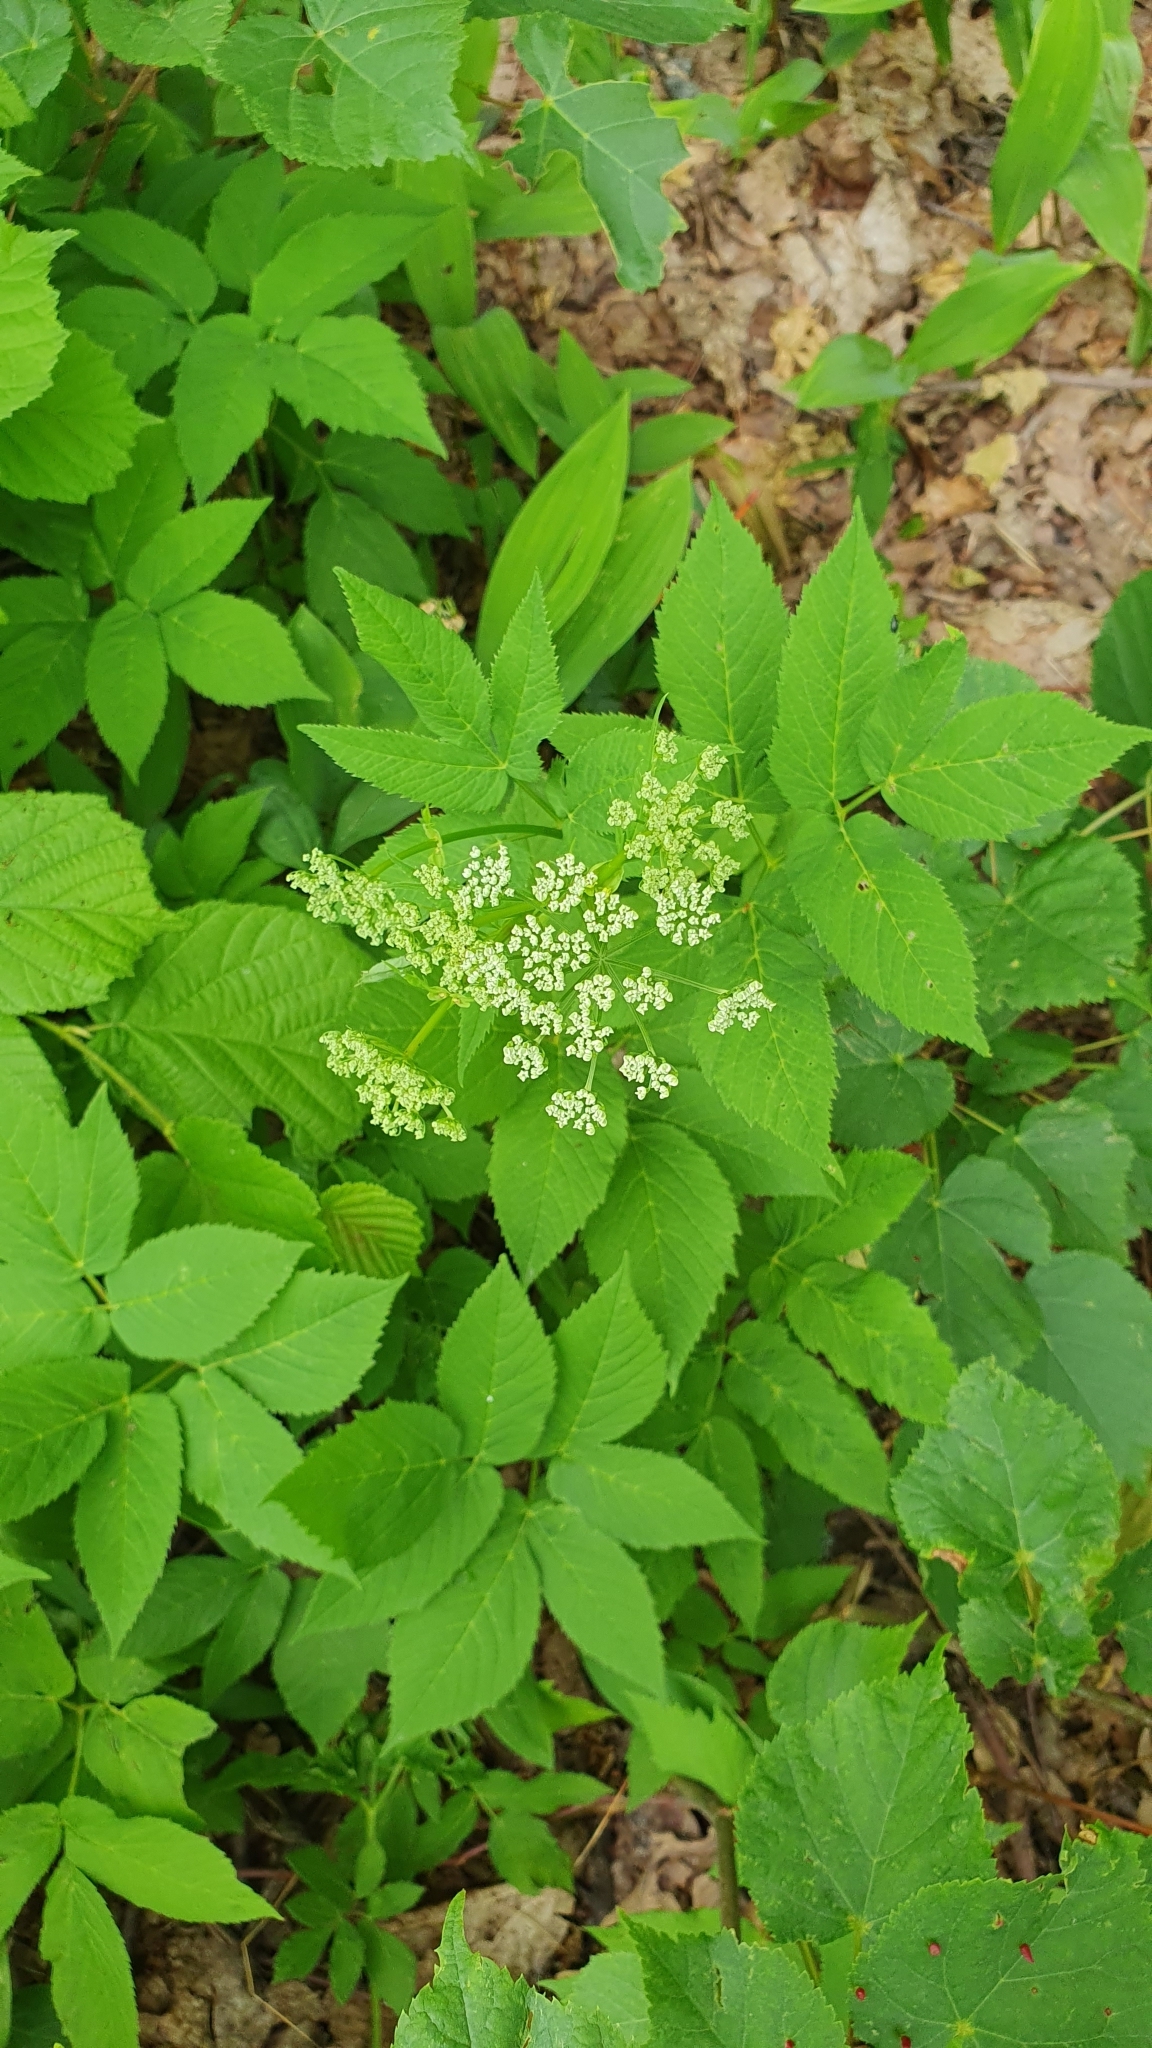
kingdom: Plantae
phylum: Tracheophyta
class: Magnoliopsida
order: Apiales
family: Apiaceae
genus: Aegopodium
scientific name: Aegopodium podagraria
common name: Ground-elder
